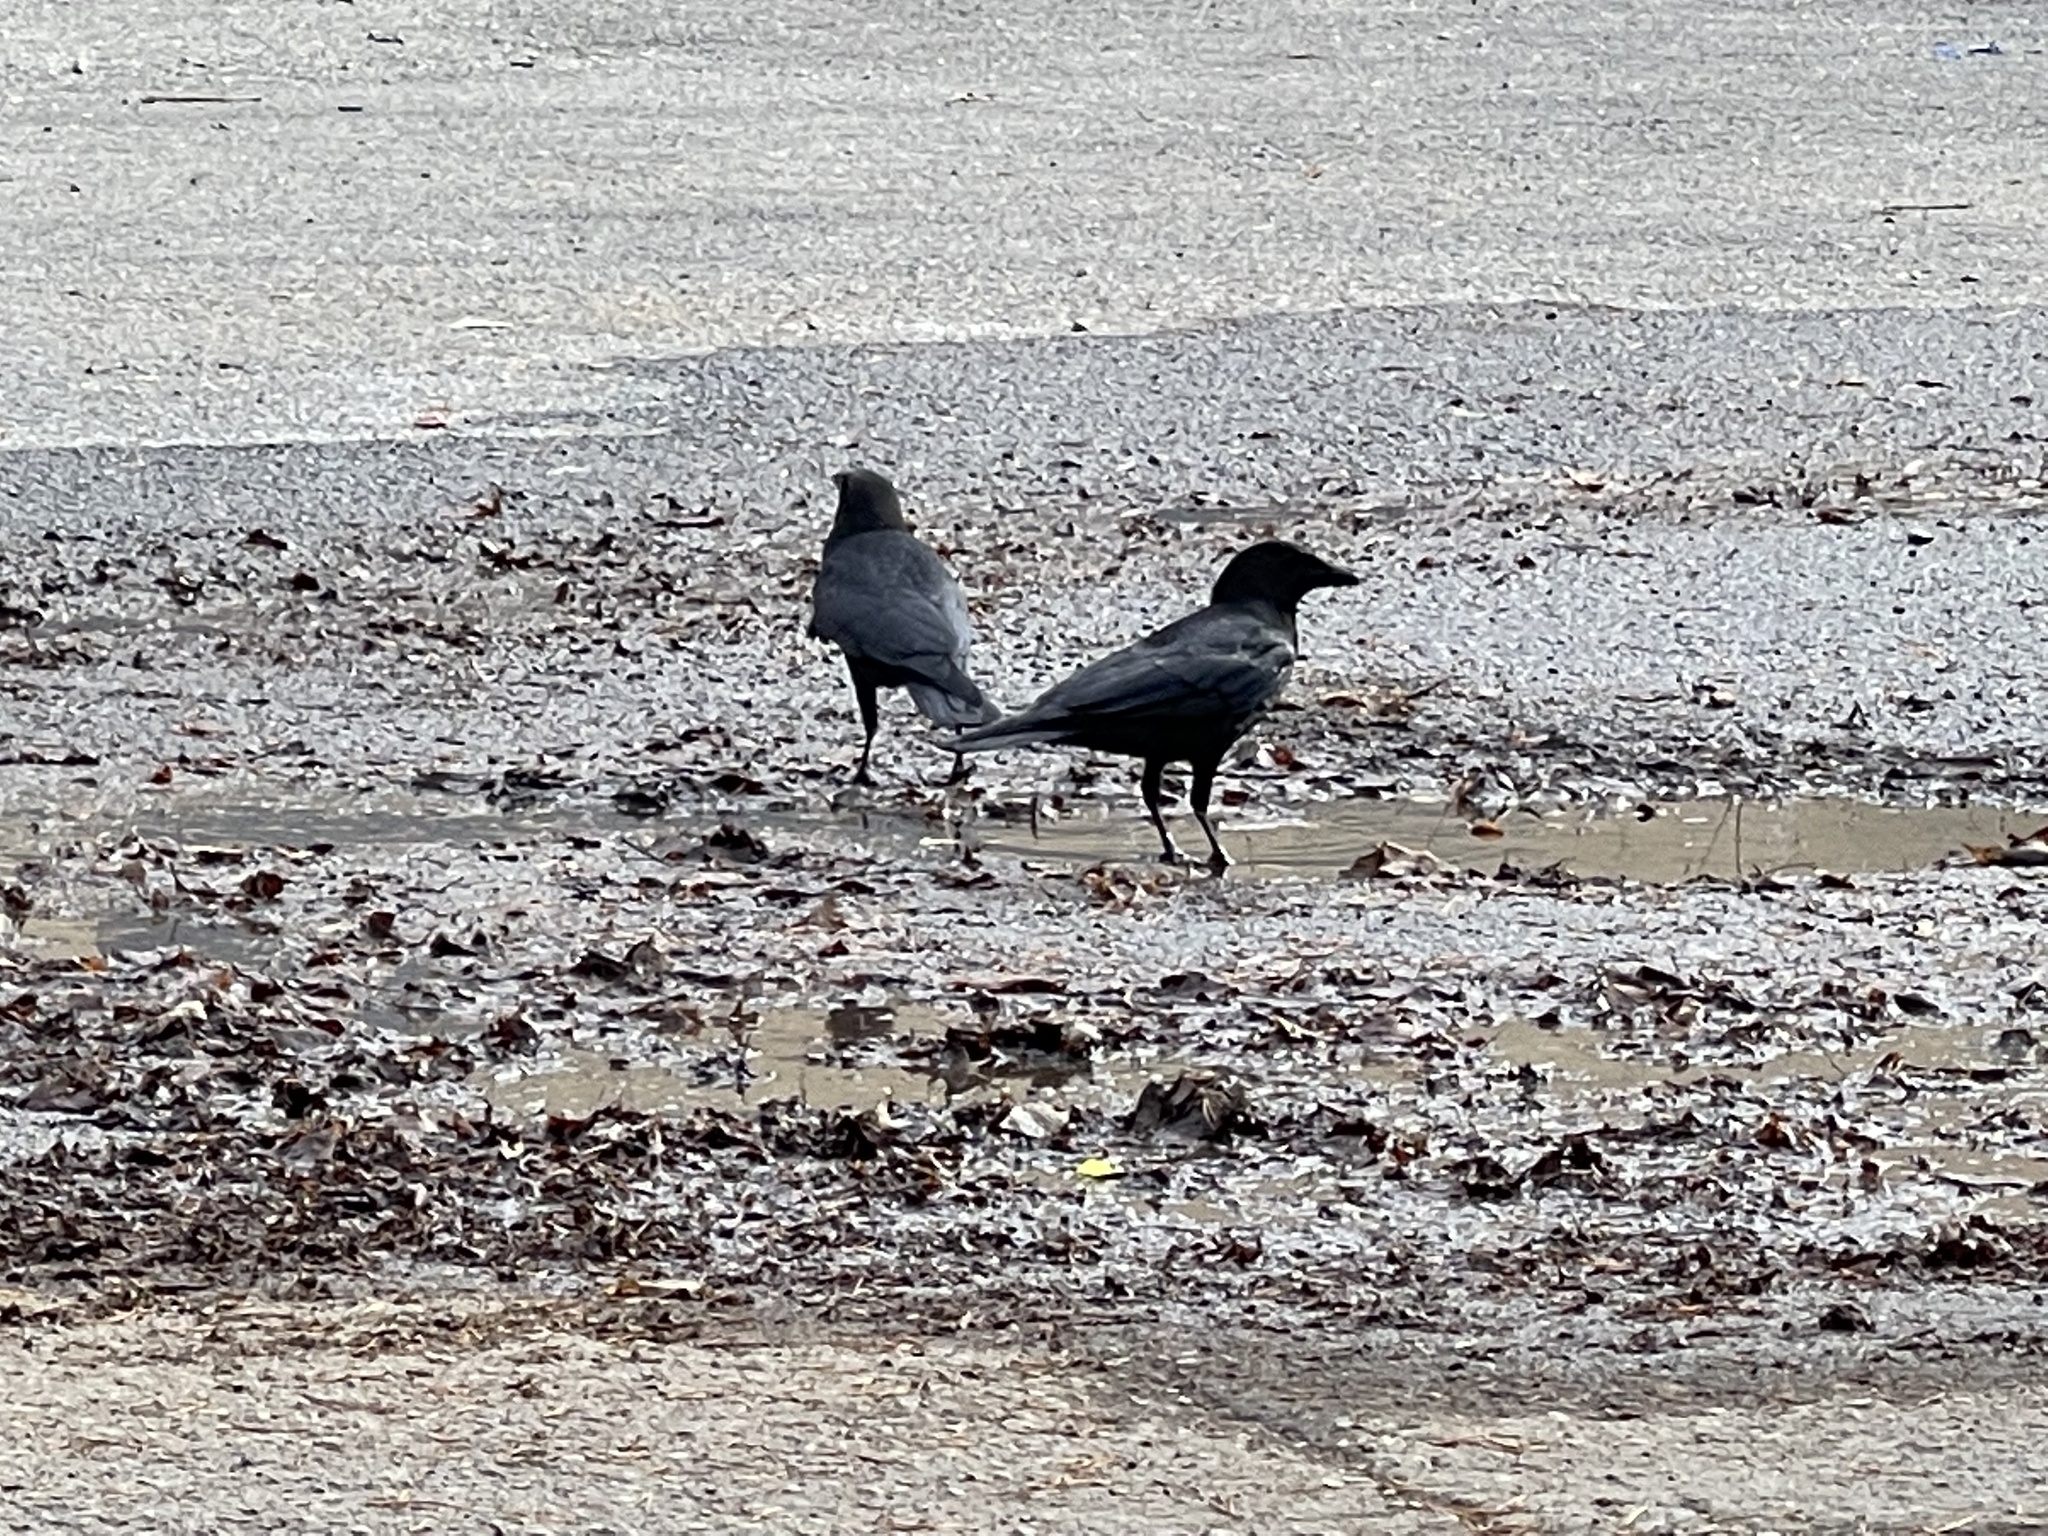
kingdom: Animalia
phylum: Chordata
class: Aves
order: Passeriformes
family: Corvidae
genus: Corvus
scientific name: Corvus brachyrhynchos
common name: American crow
